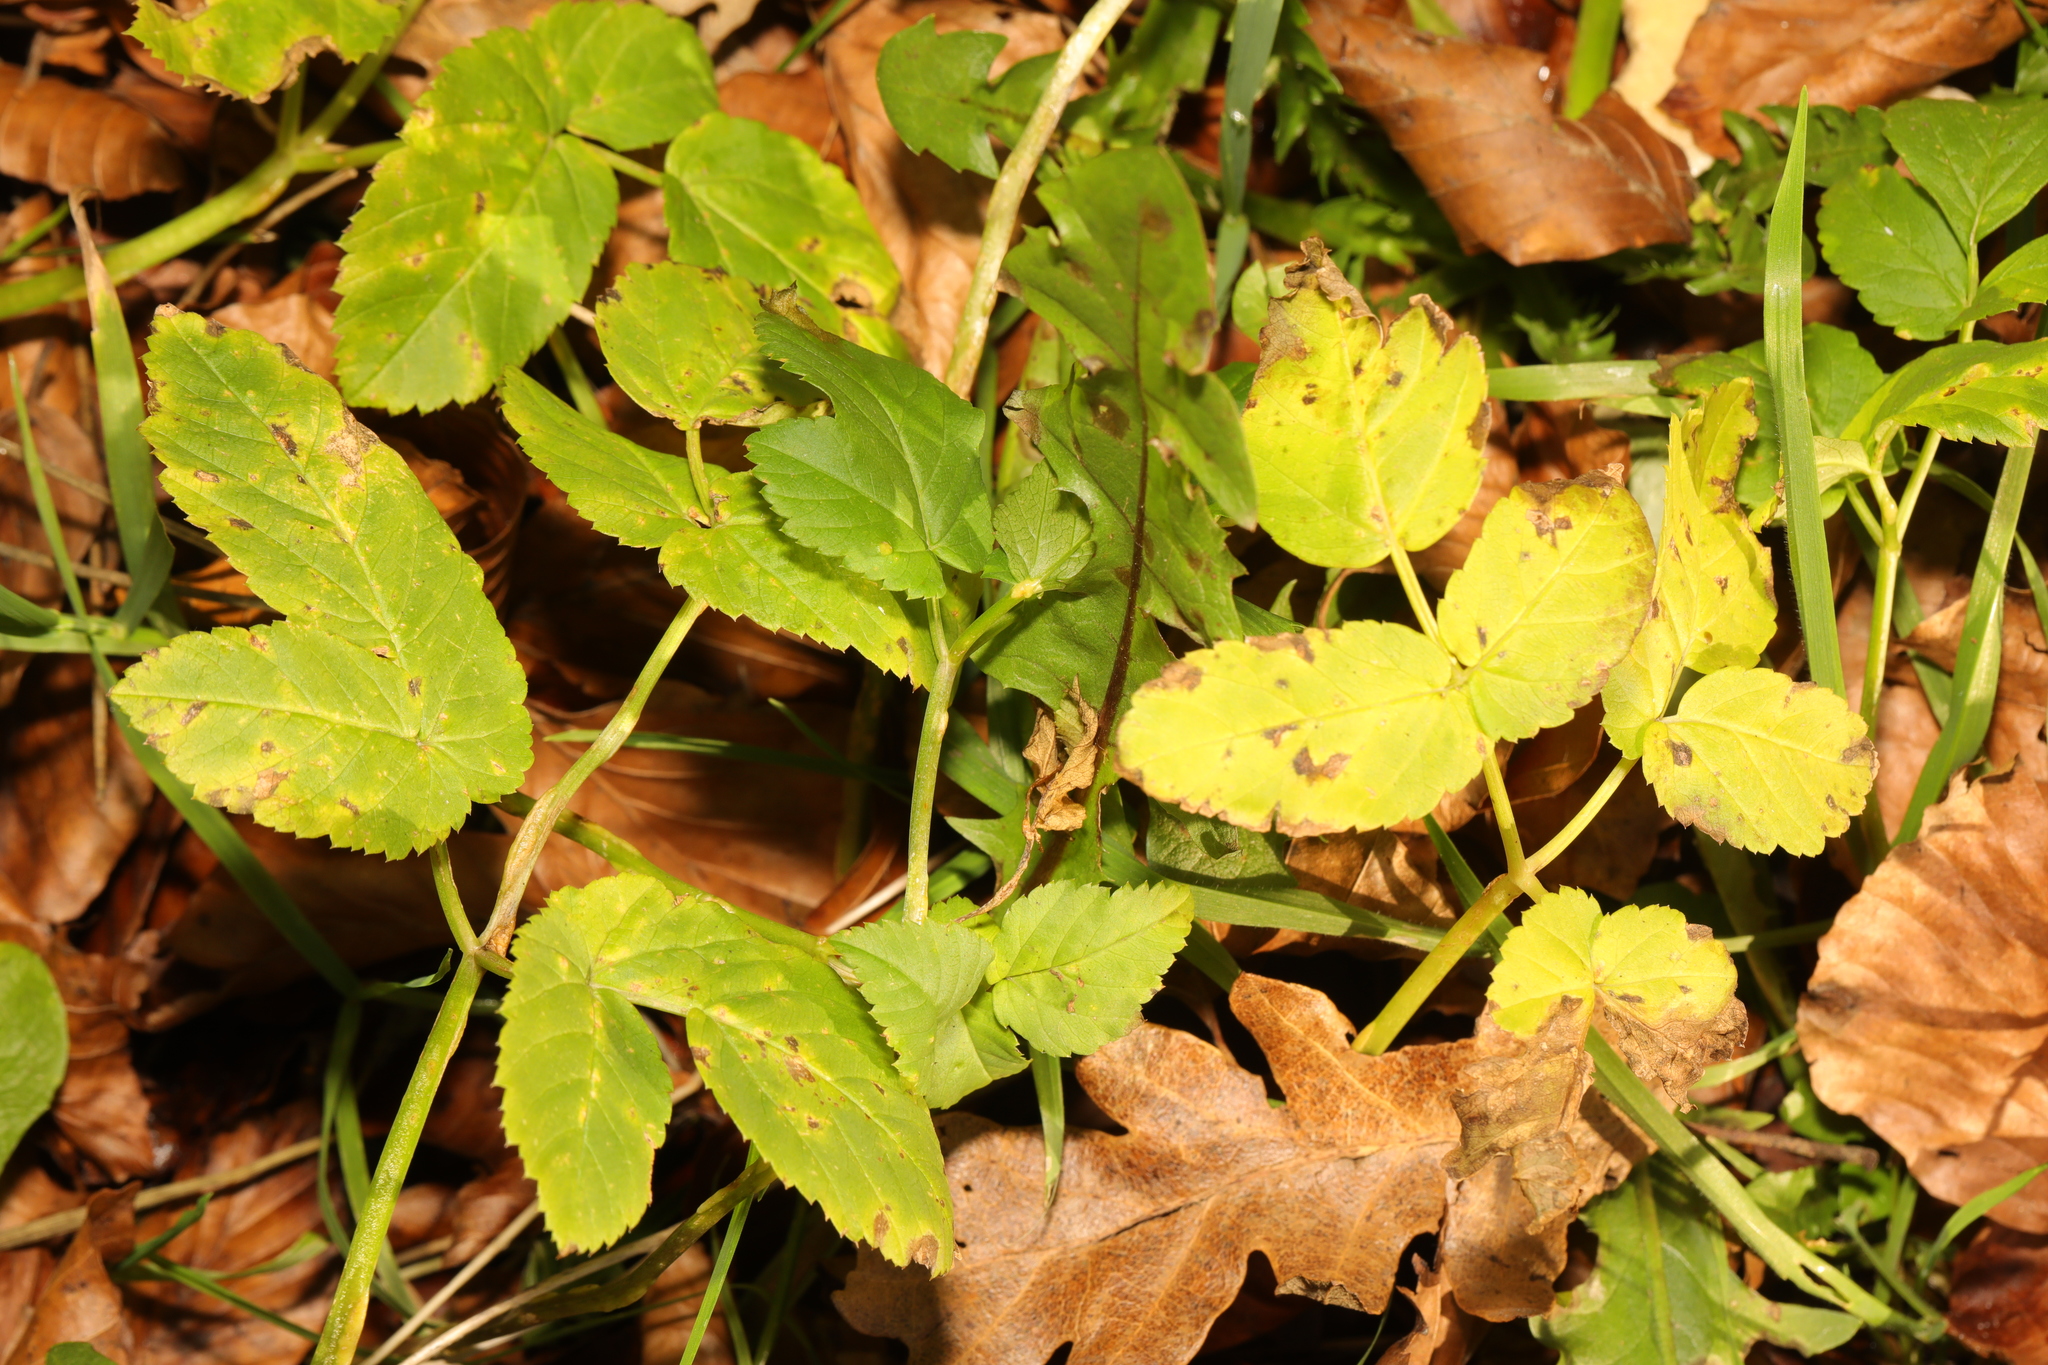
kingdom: Plantae
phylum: Tracheophyta
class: Magnoliopsida
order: Apiales
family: Apiaceae
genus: Aegopodium
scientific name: Aegopodium podagraria
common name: Ground-elder
